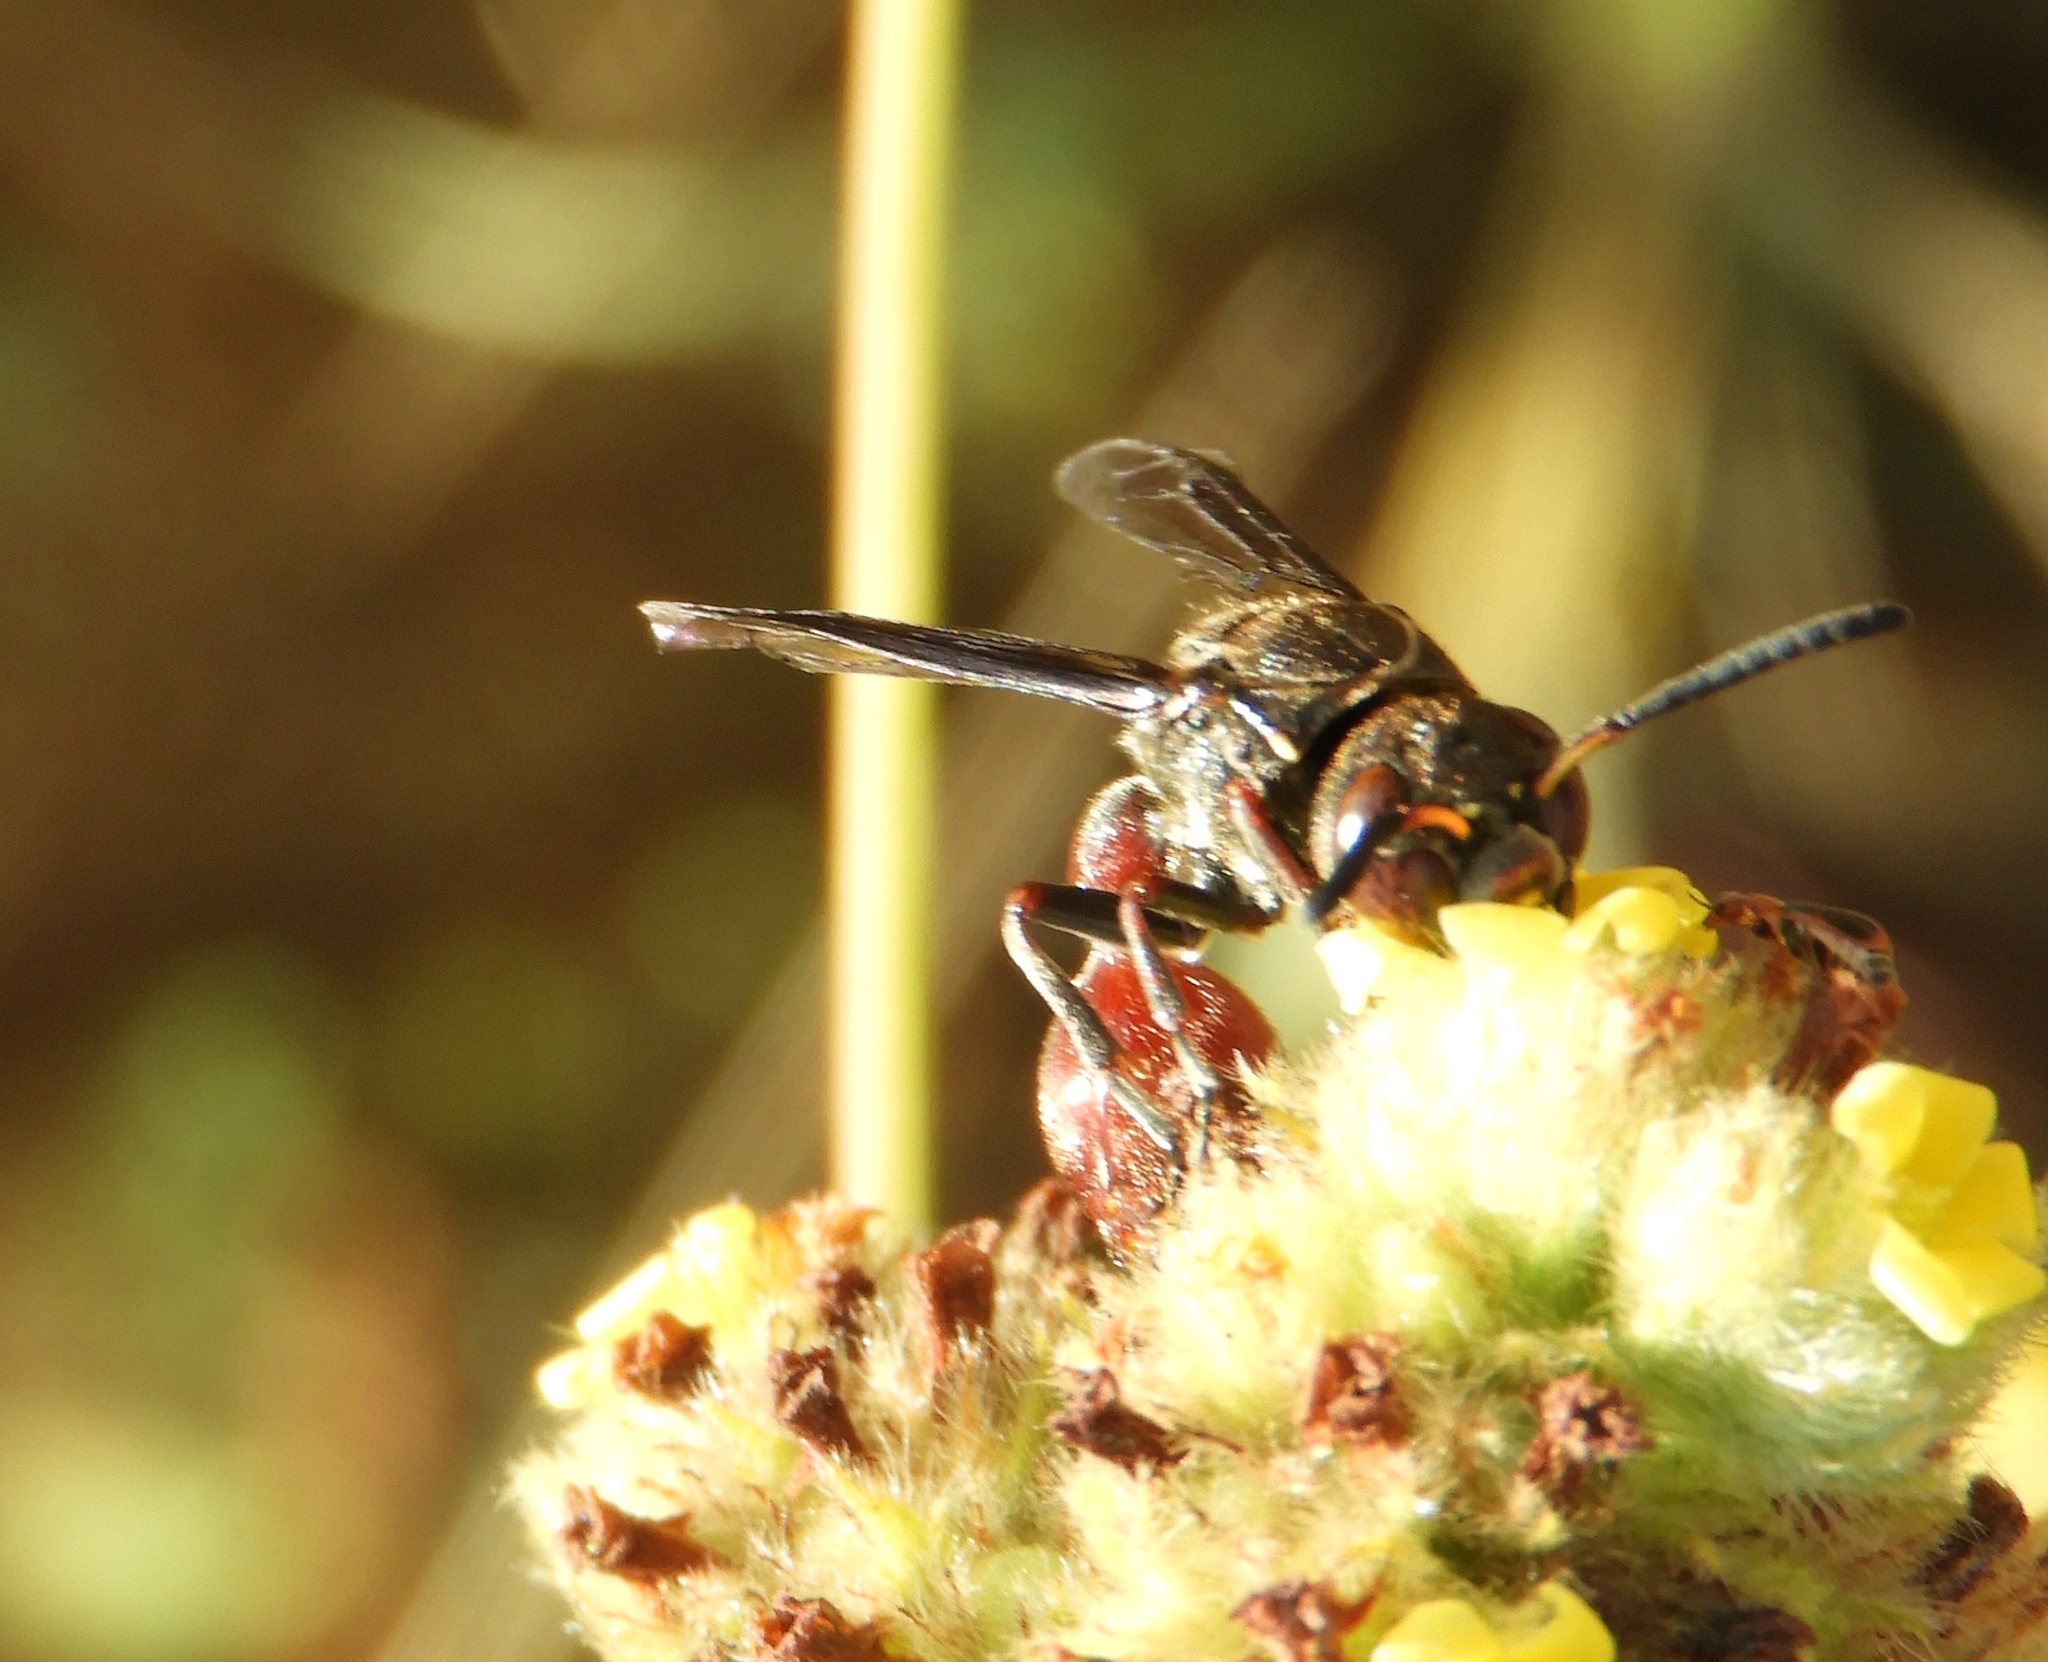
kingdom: Animalia
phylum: Arthropoda
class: Insecta
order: Hymenoptera
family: Eumenidae
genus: Zethus
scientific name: Zethus analis
